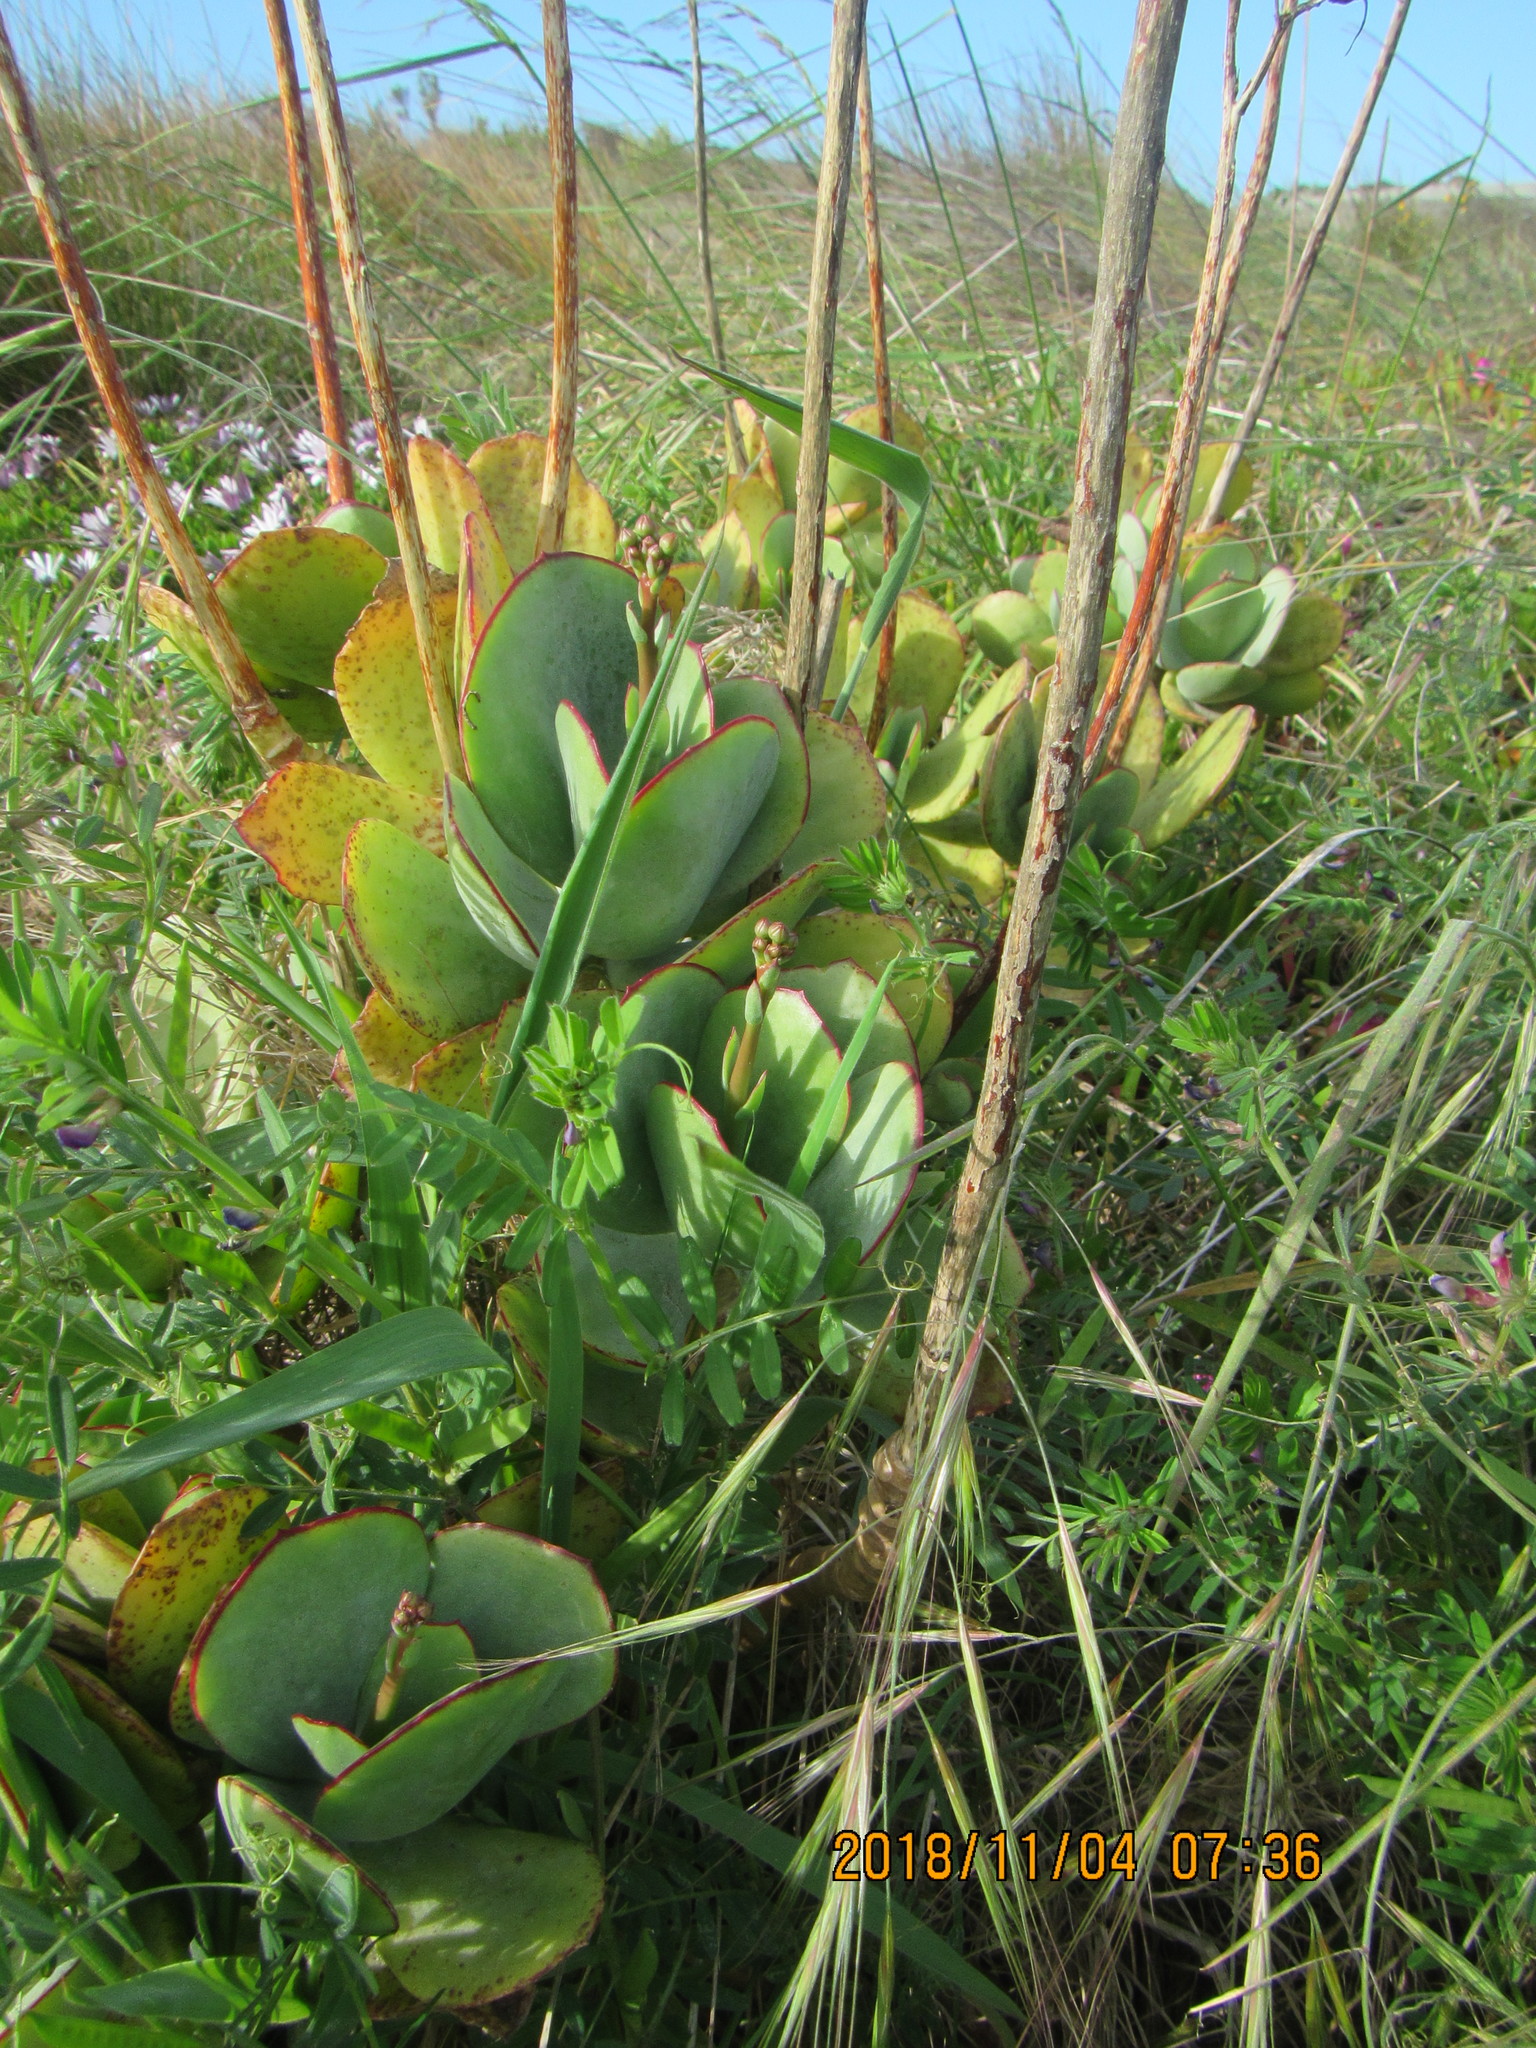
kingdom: Plantae
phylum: Tracheophyta
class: Magnoliopsida
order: Saxifragales
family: Crassulaceae
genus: Cotyledon
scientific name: Cotyledon orbiculata
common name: Pig's ear
